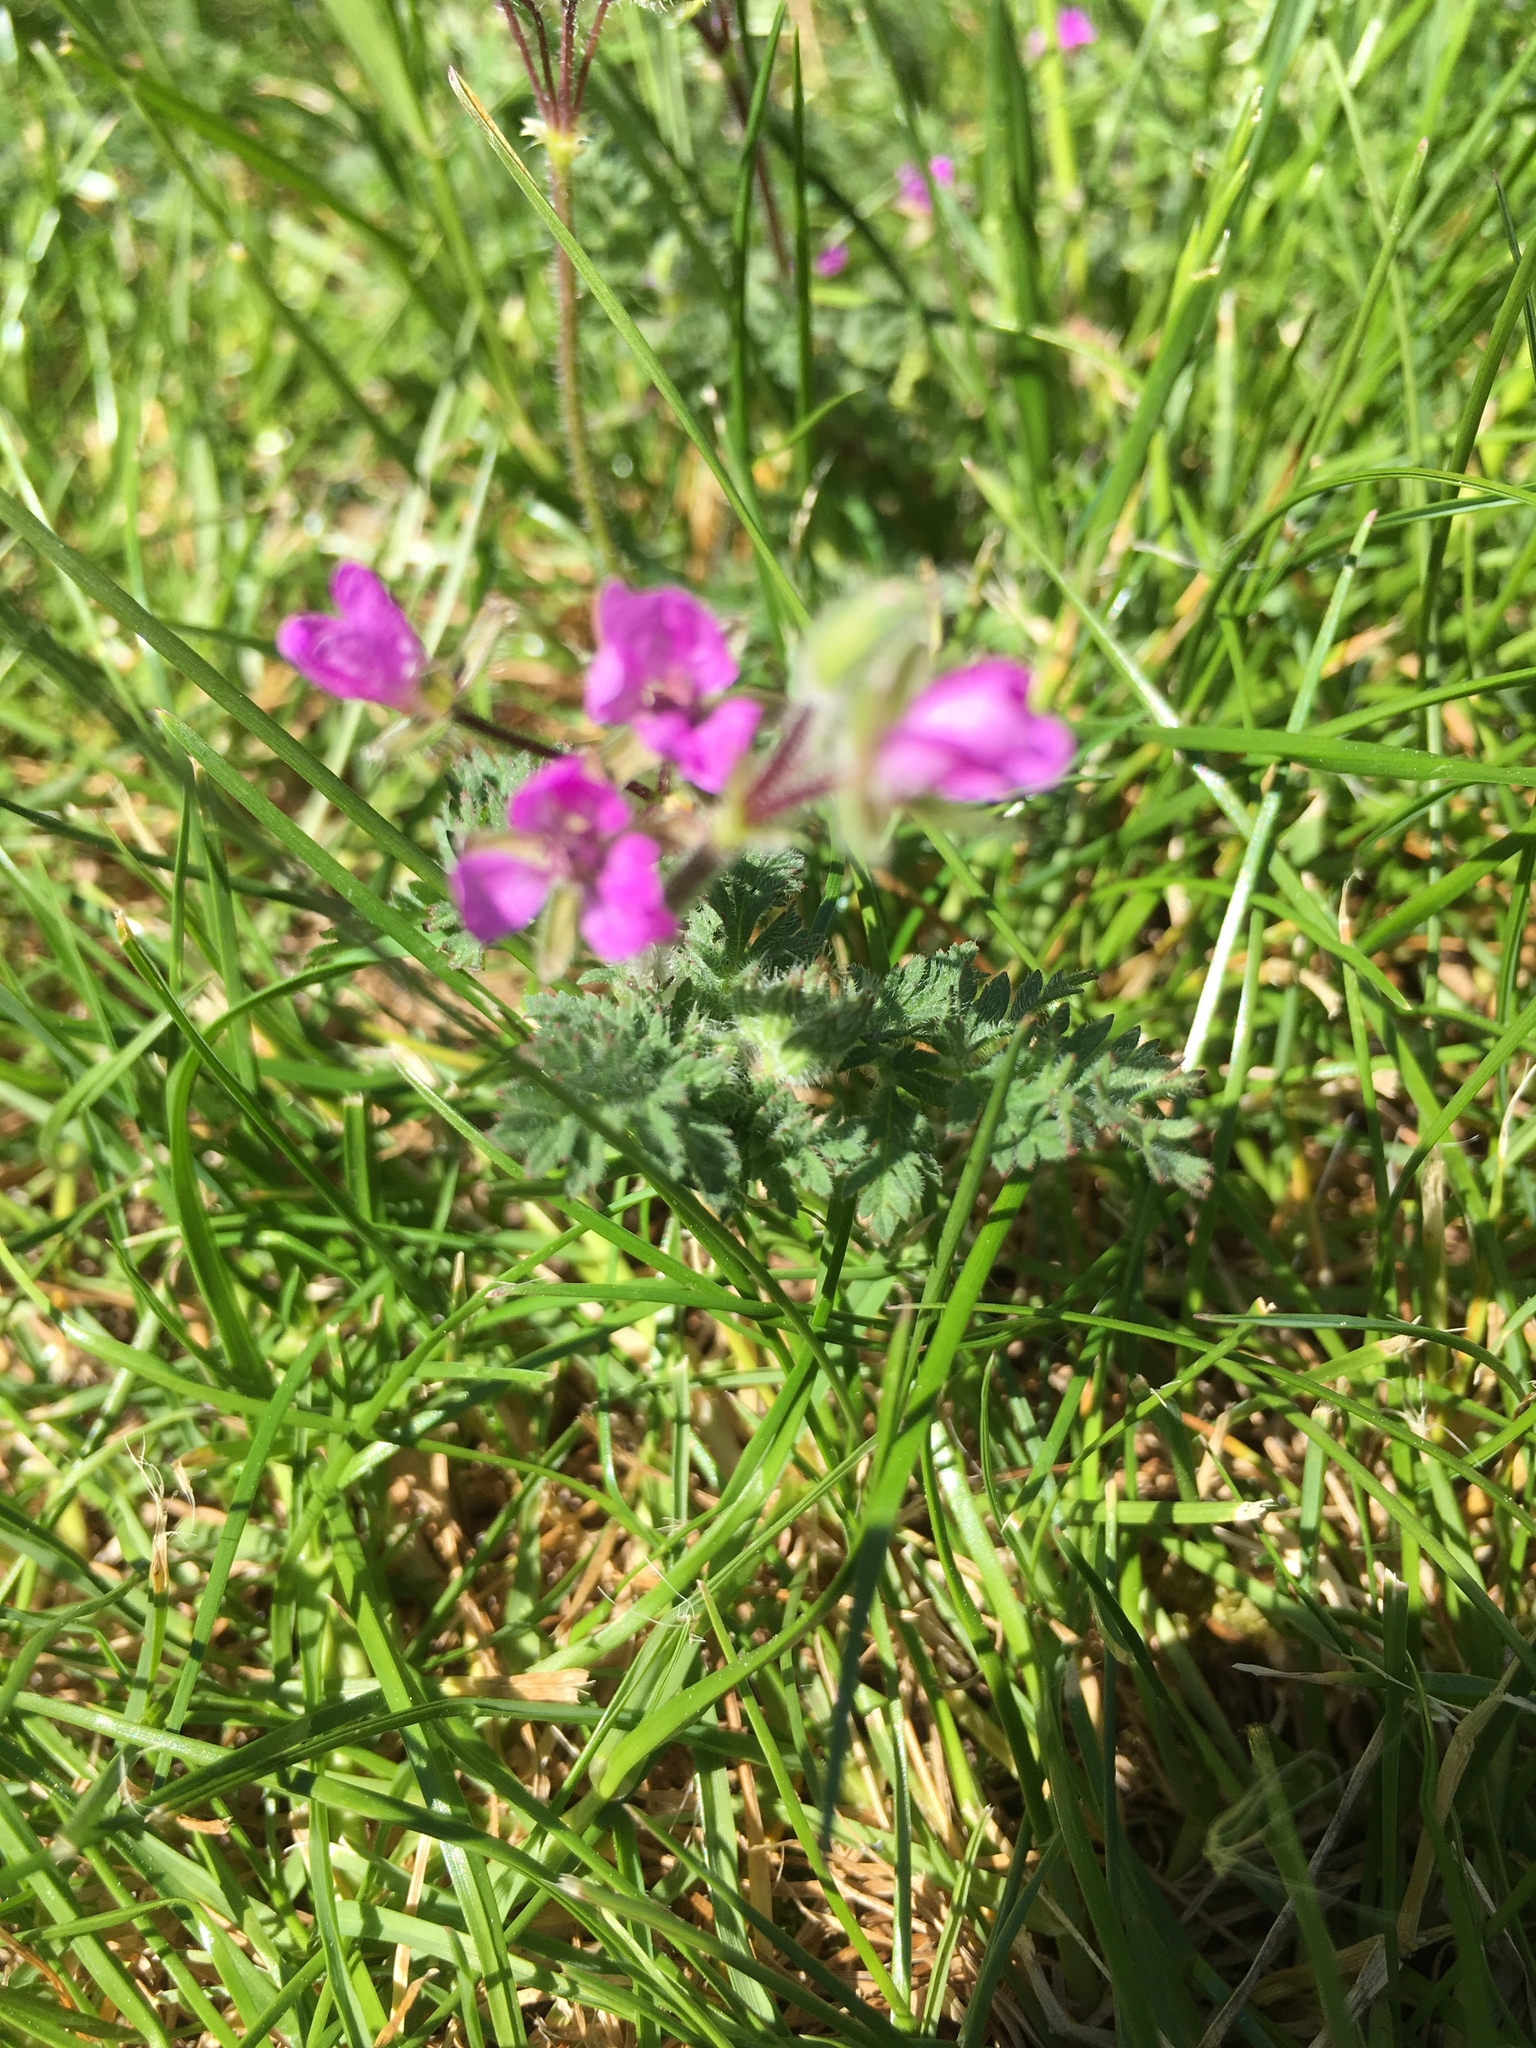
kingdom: Plantae
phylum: Tracheophyta
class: Magnoliopsida
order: Geraniales
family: Geraniaceae
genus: Erodium
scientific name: Erodium cicutarium
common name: Common stork's-bill
